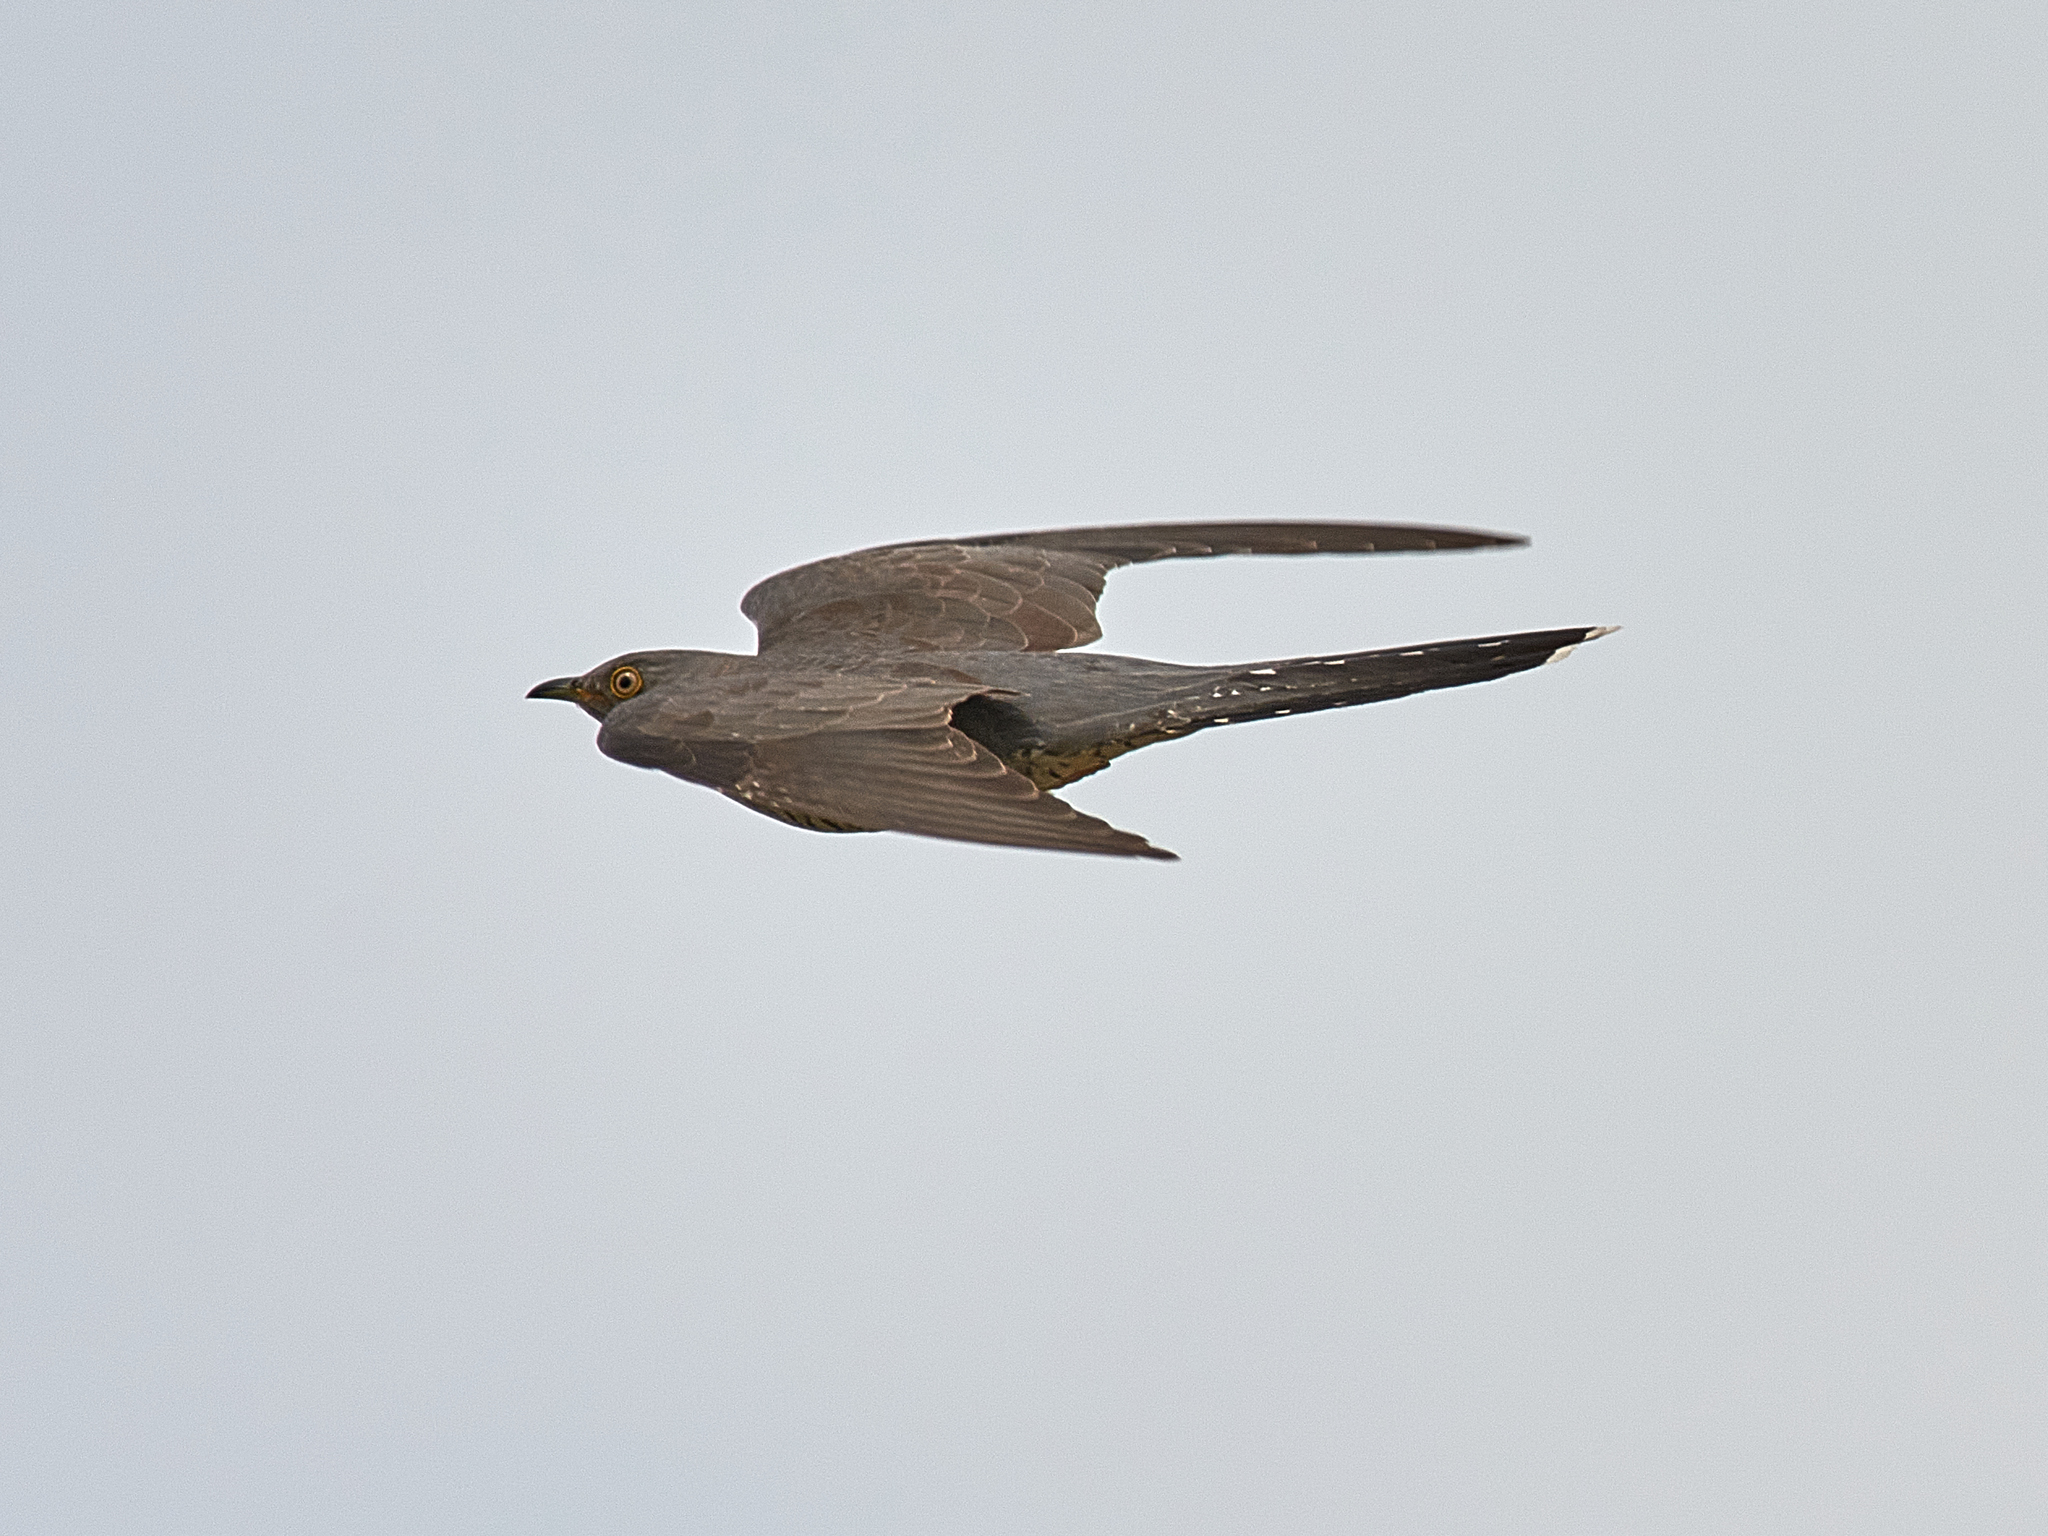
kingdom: Animalia
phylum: Chordata
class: Aves
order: Cuculiformes
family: Cuculidae
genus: Cuculus
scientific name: Cuculus canorus
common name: Common cuckoo
